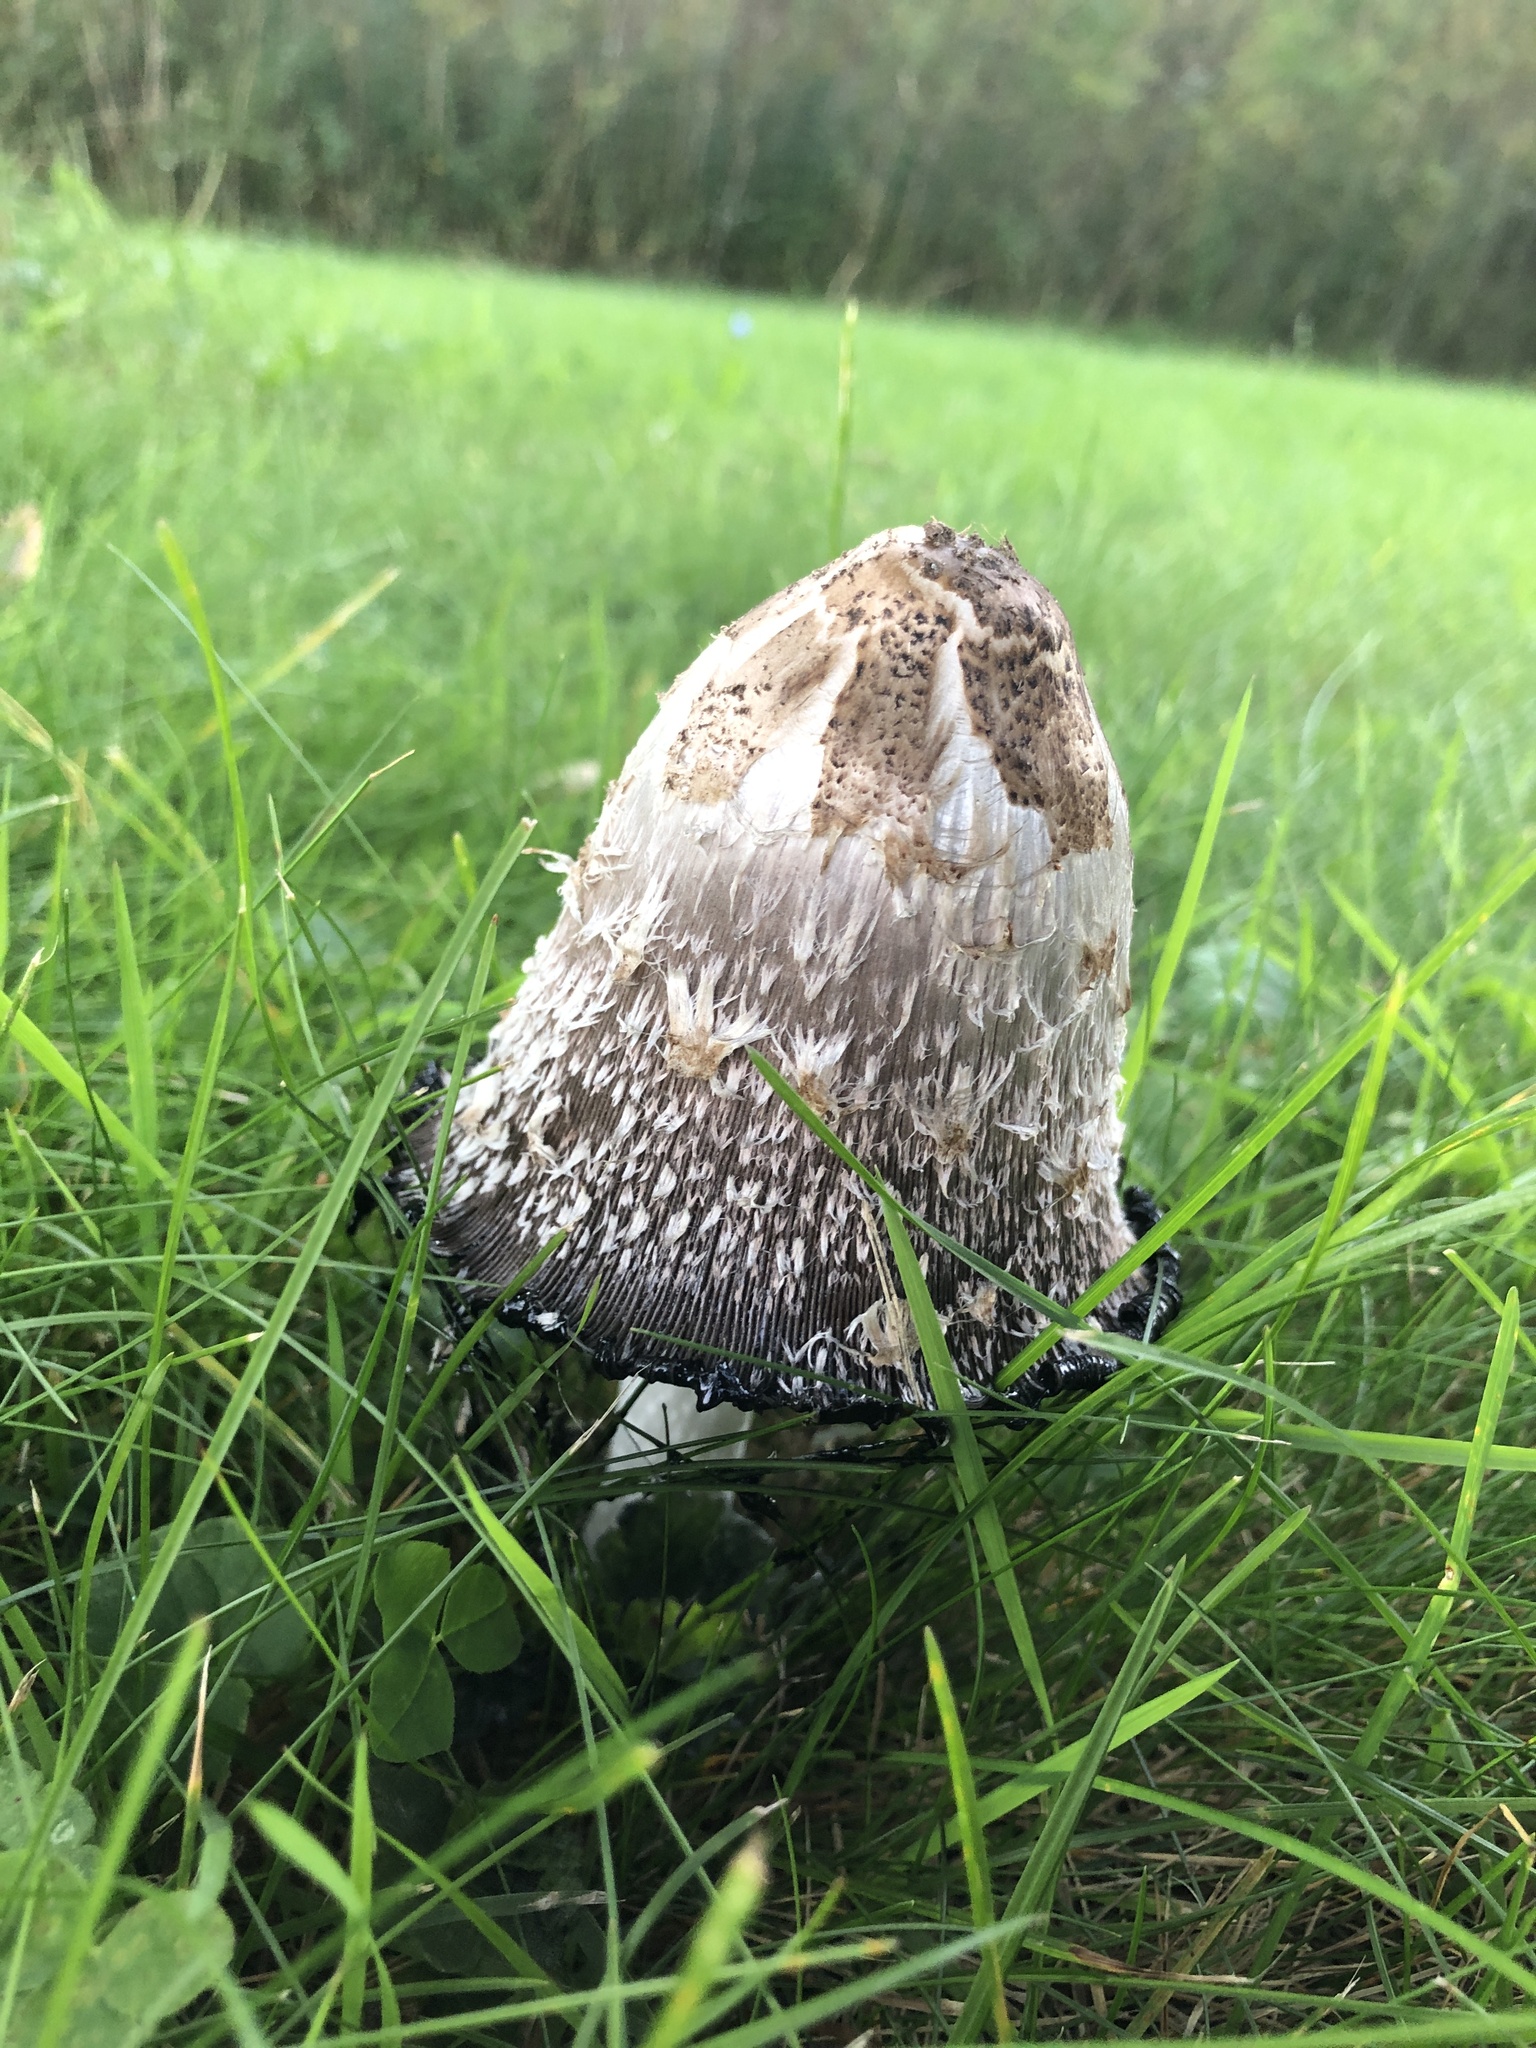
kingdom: Fungi
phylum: Basidiomycota
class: Agaricomycetes
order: Agaricales
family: Agaricaceae
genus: Coprinus
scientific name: Coprinus comatus
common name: Lawyer's wig
